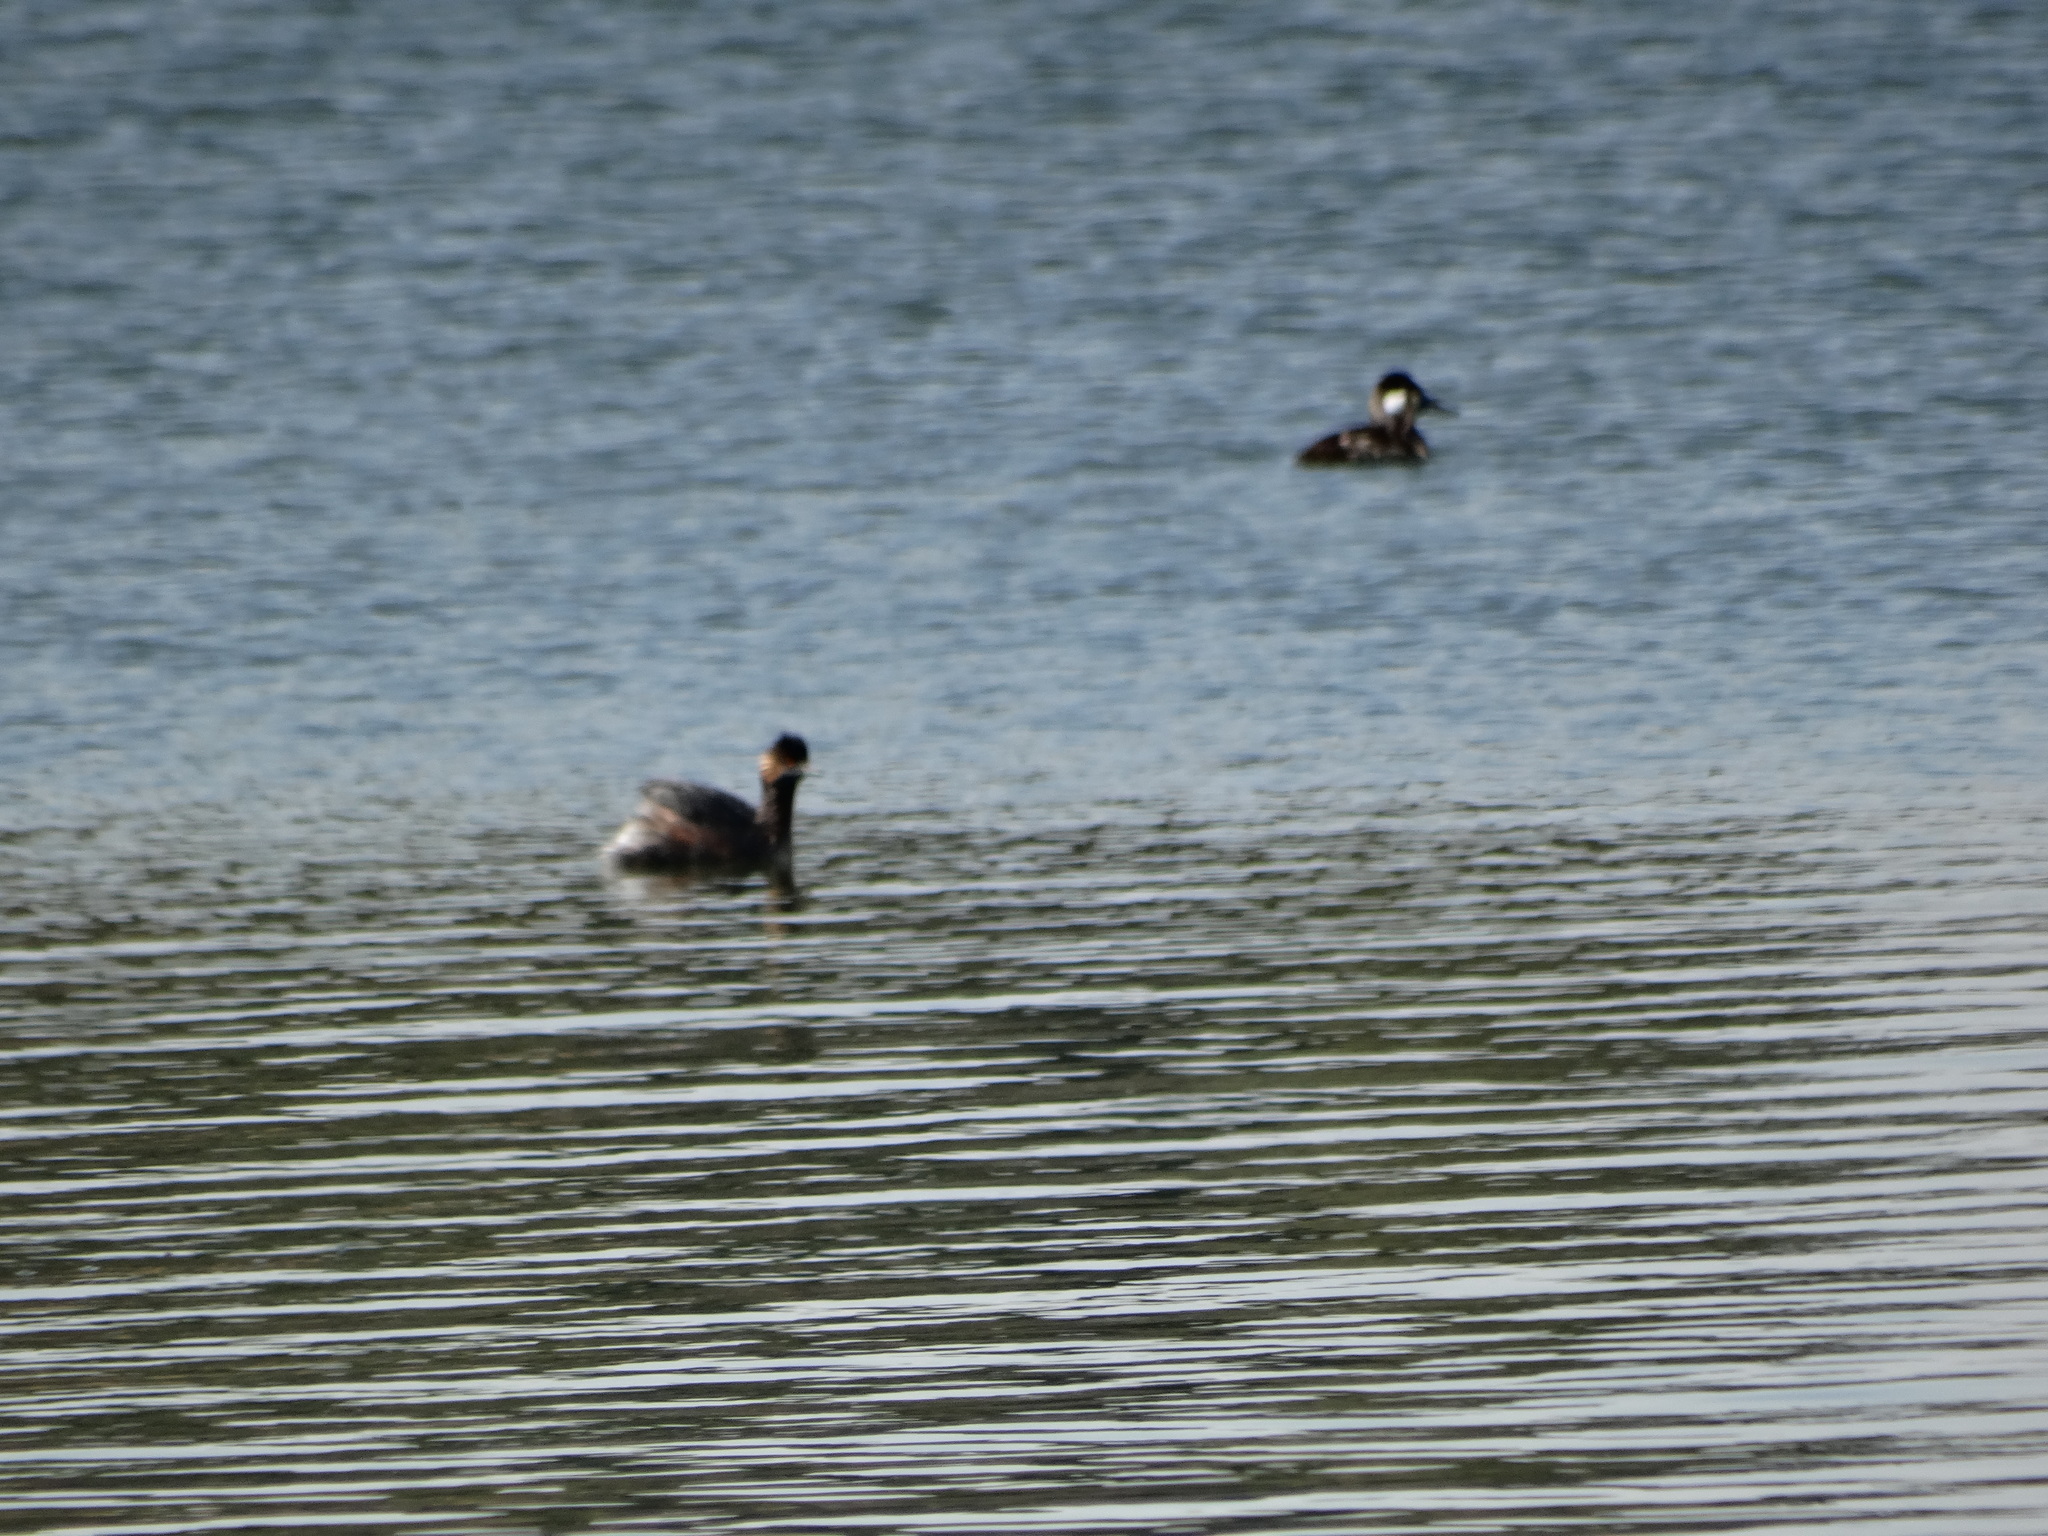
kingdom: Animalia
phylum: Chordata
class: Aves
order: Podicipediformes
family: Podicipedidae
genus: Podiceps
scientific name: Podiceps nigricollis
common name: Black-necked grebe
